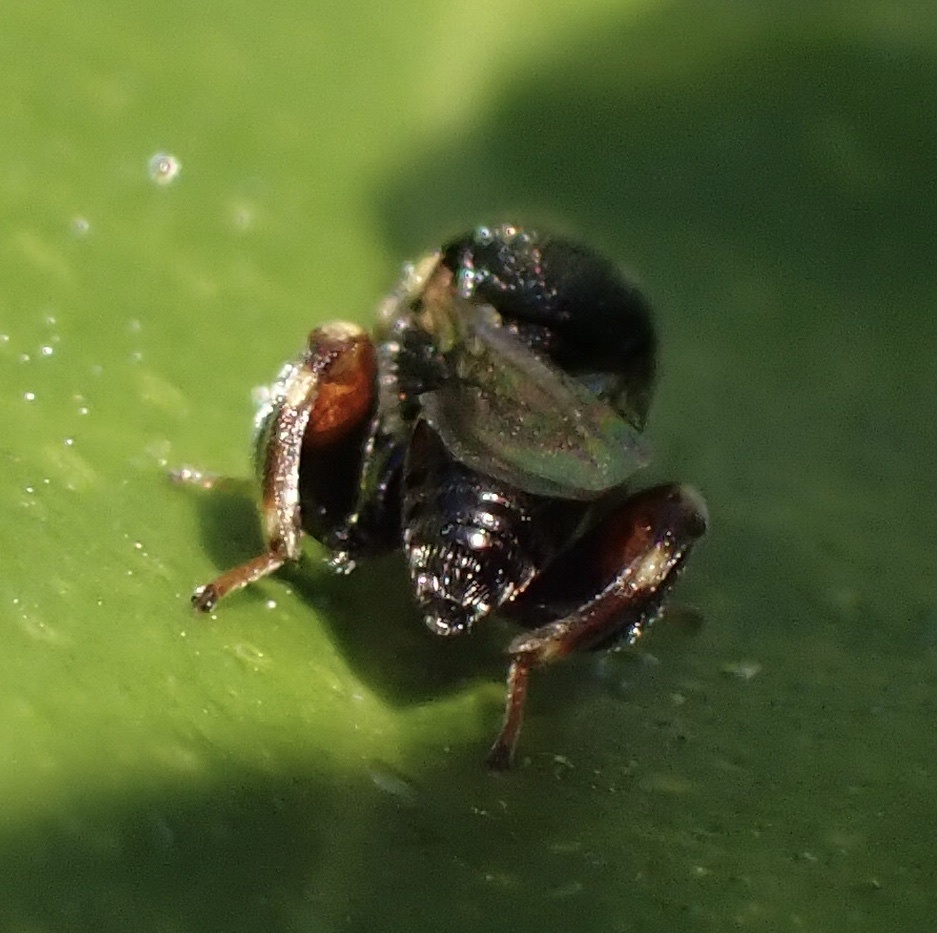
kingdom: Animalia
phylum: Arthropoda
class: Insecta
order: Hymenoptera
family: Chalcididae
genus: Brachymeria
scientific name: Brachymeria obtusata
